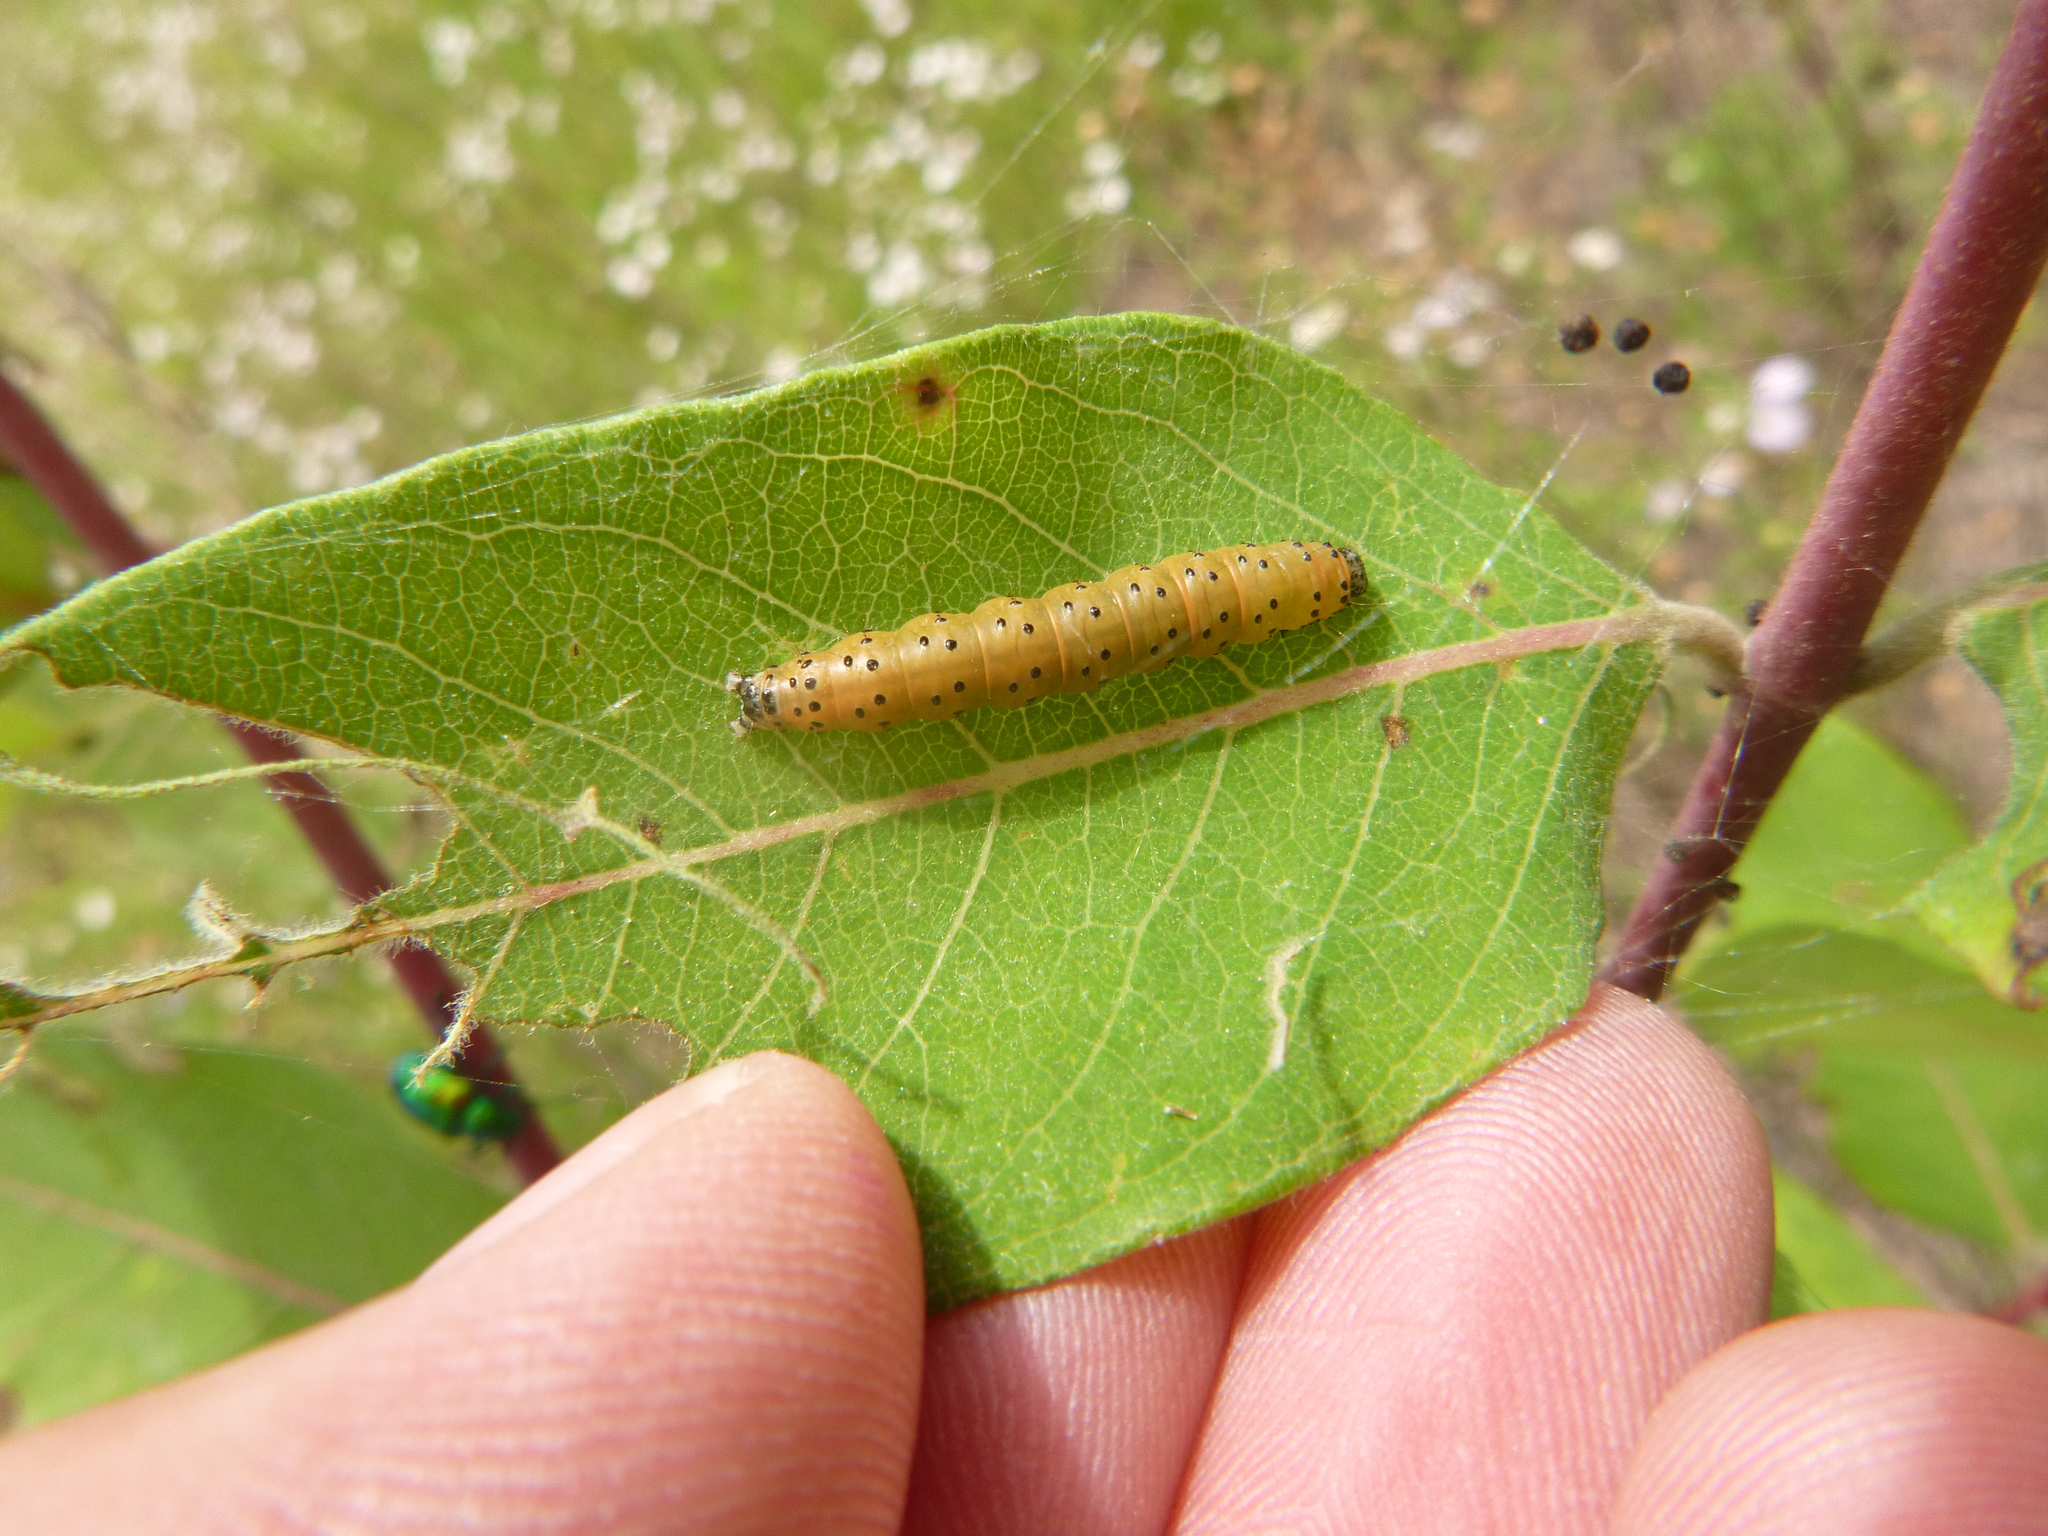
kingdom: Animalia
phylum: Arthropoda
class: Insecta
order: Lepidoptera
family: Crambidae
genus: Saucrobotys
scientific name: Saucrobotys futilalis
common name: Dogbane saucrobotys moth
